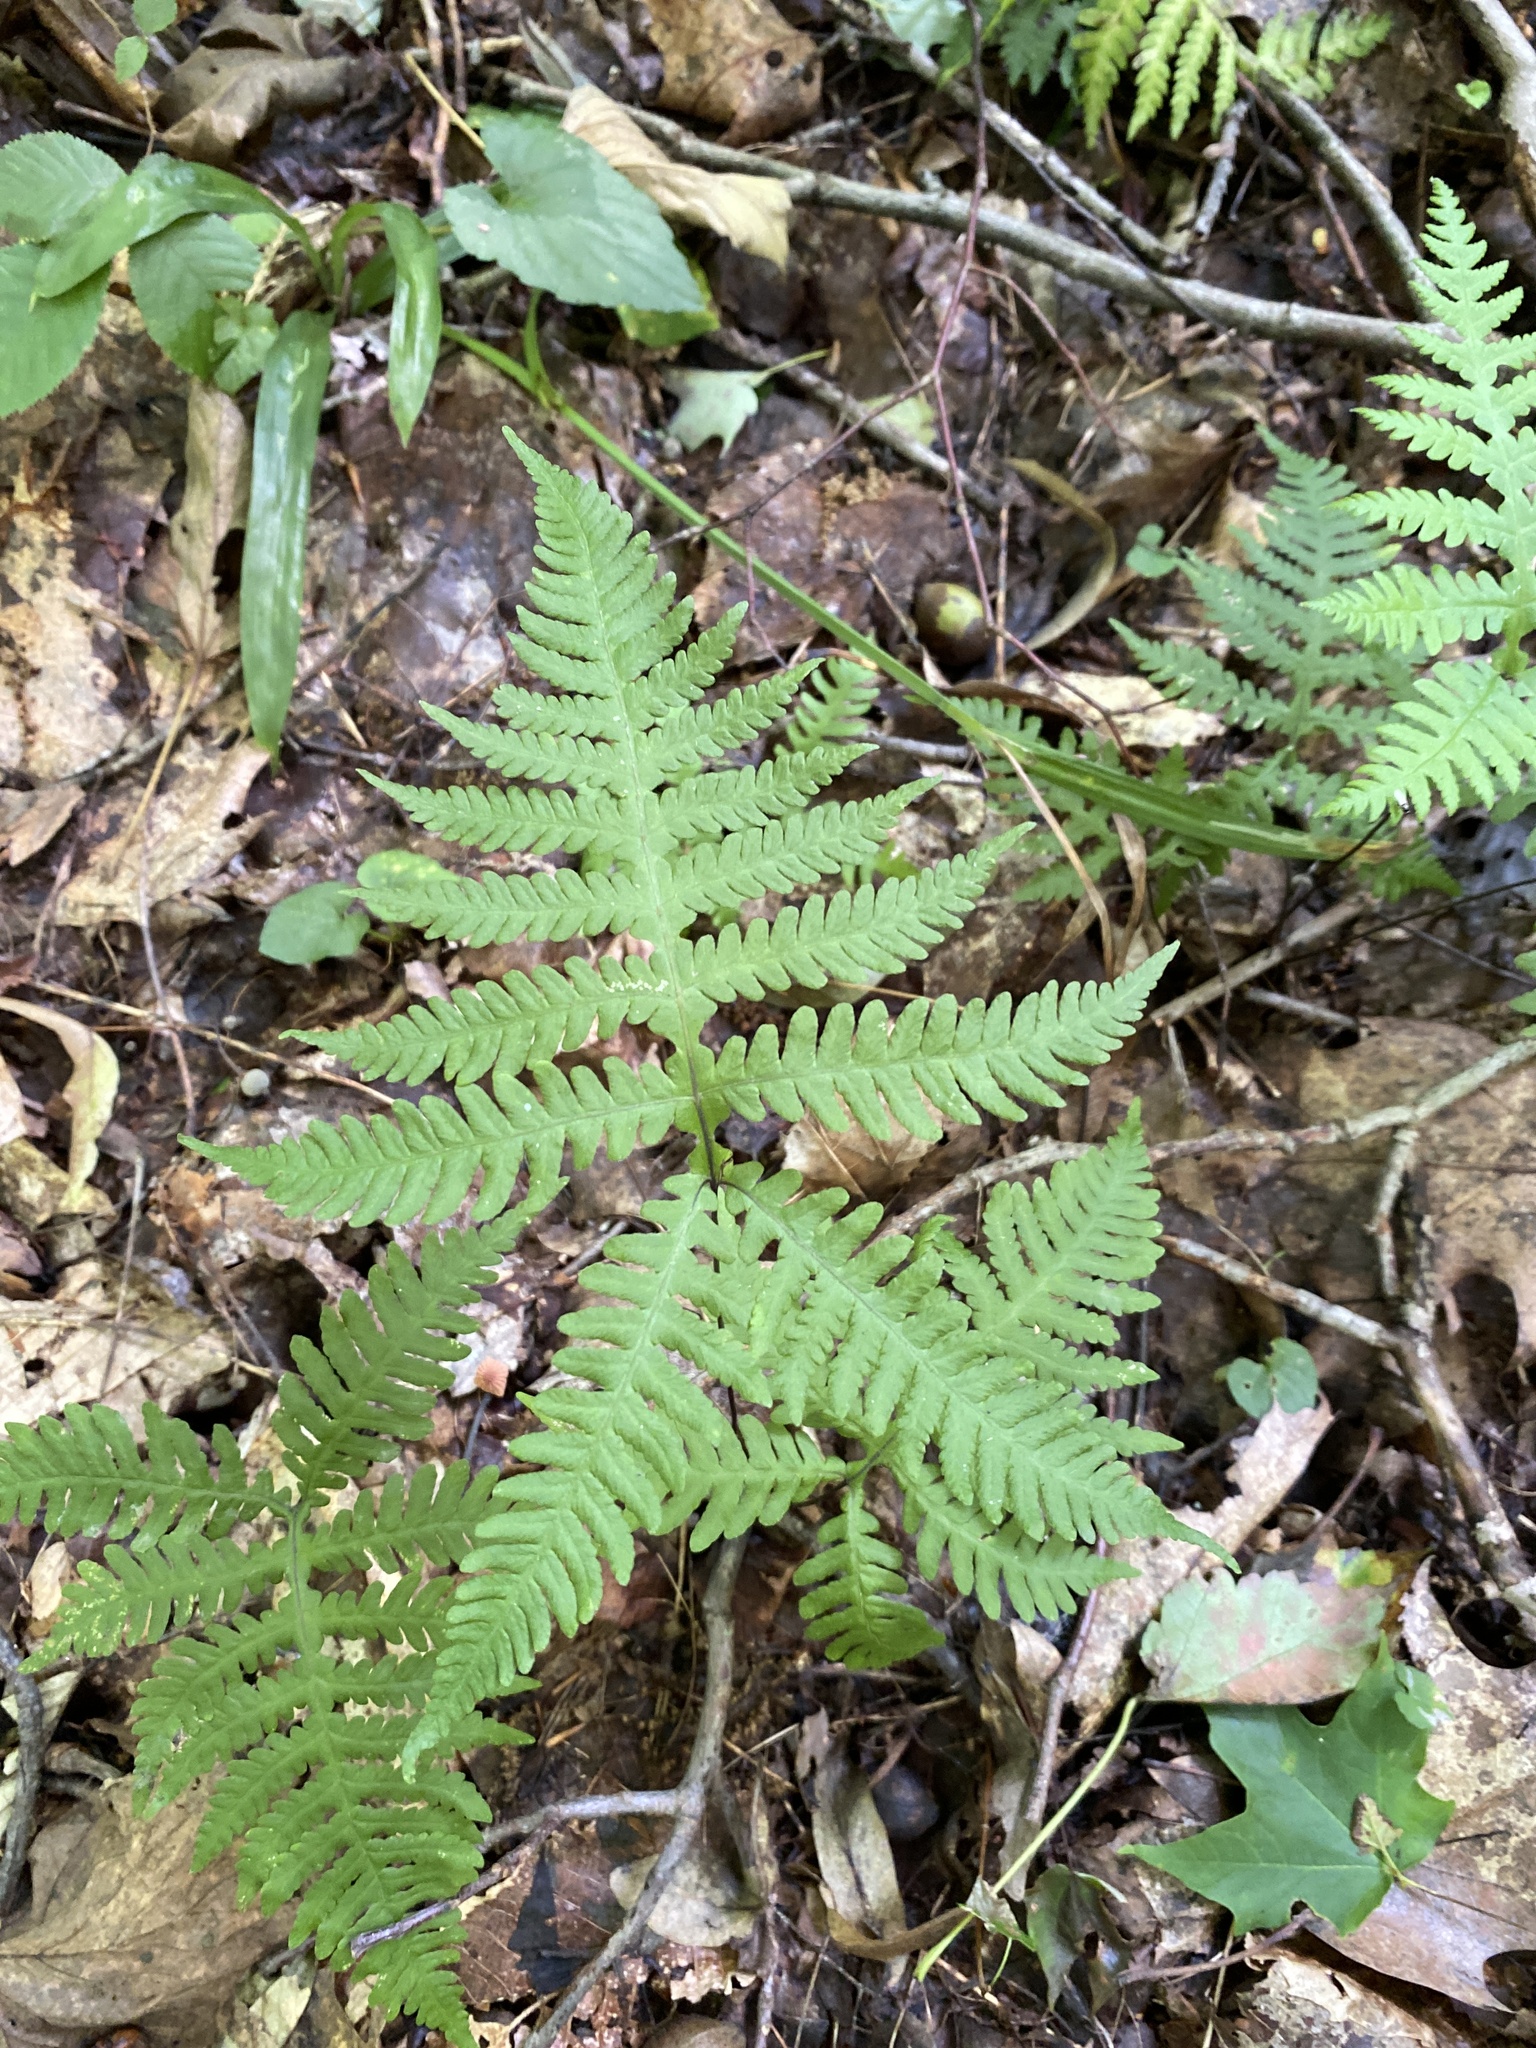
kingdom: Plantae
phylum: Tracheophyta
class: Polypodiopsida
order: Polypodiales
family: Thelypteridaceae
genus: Phegopteris
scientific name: Phegopteris hexagonoptera
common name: Broad beech fern
